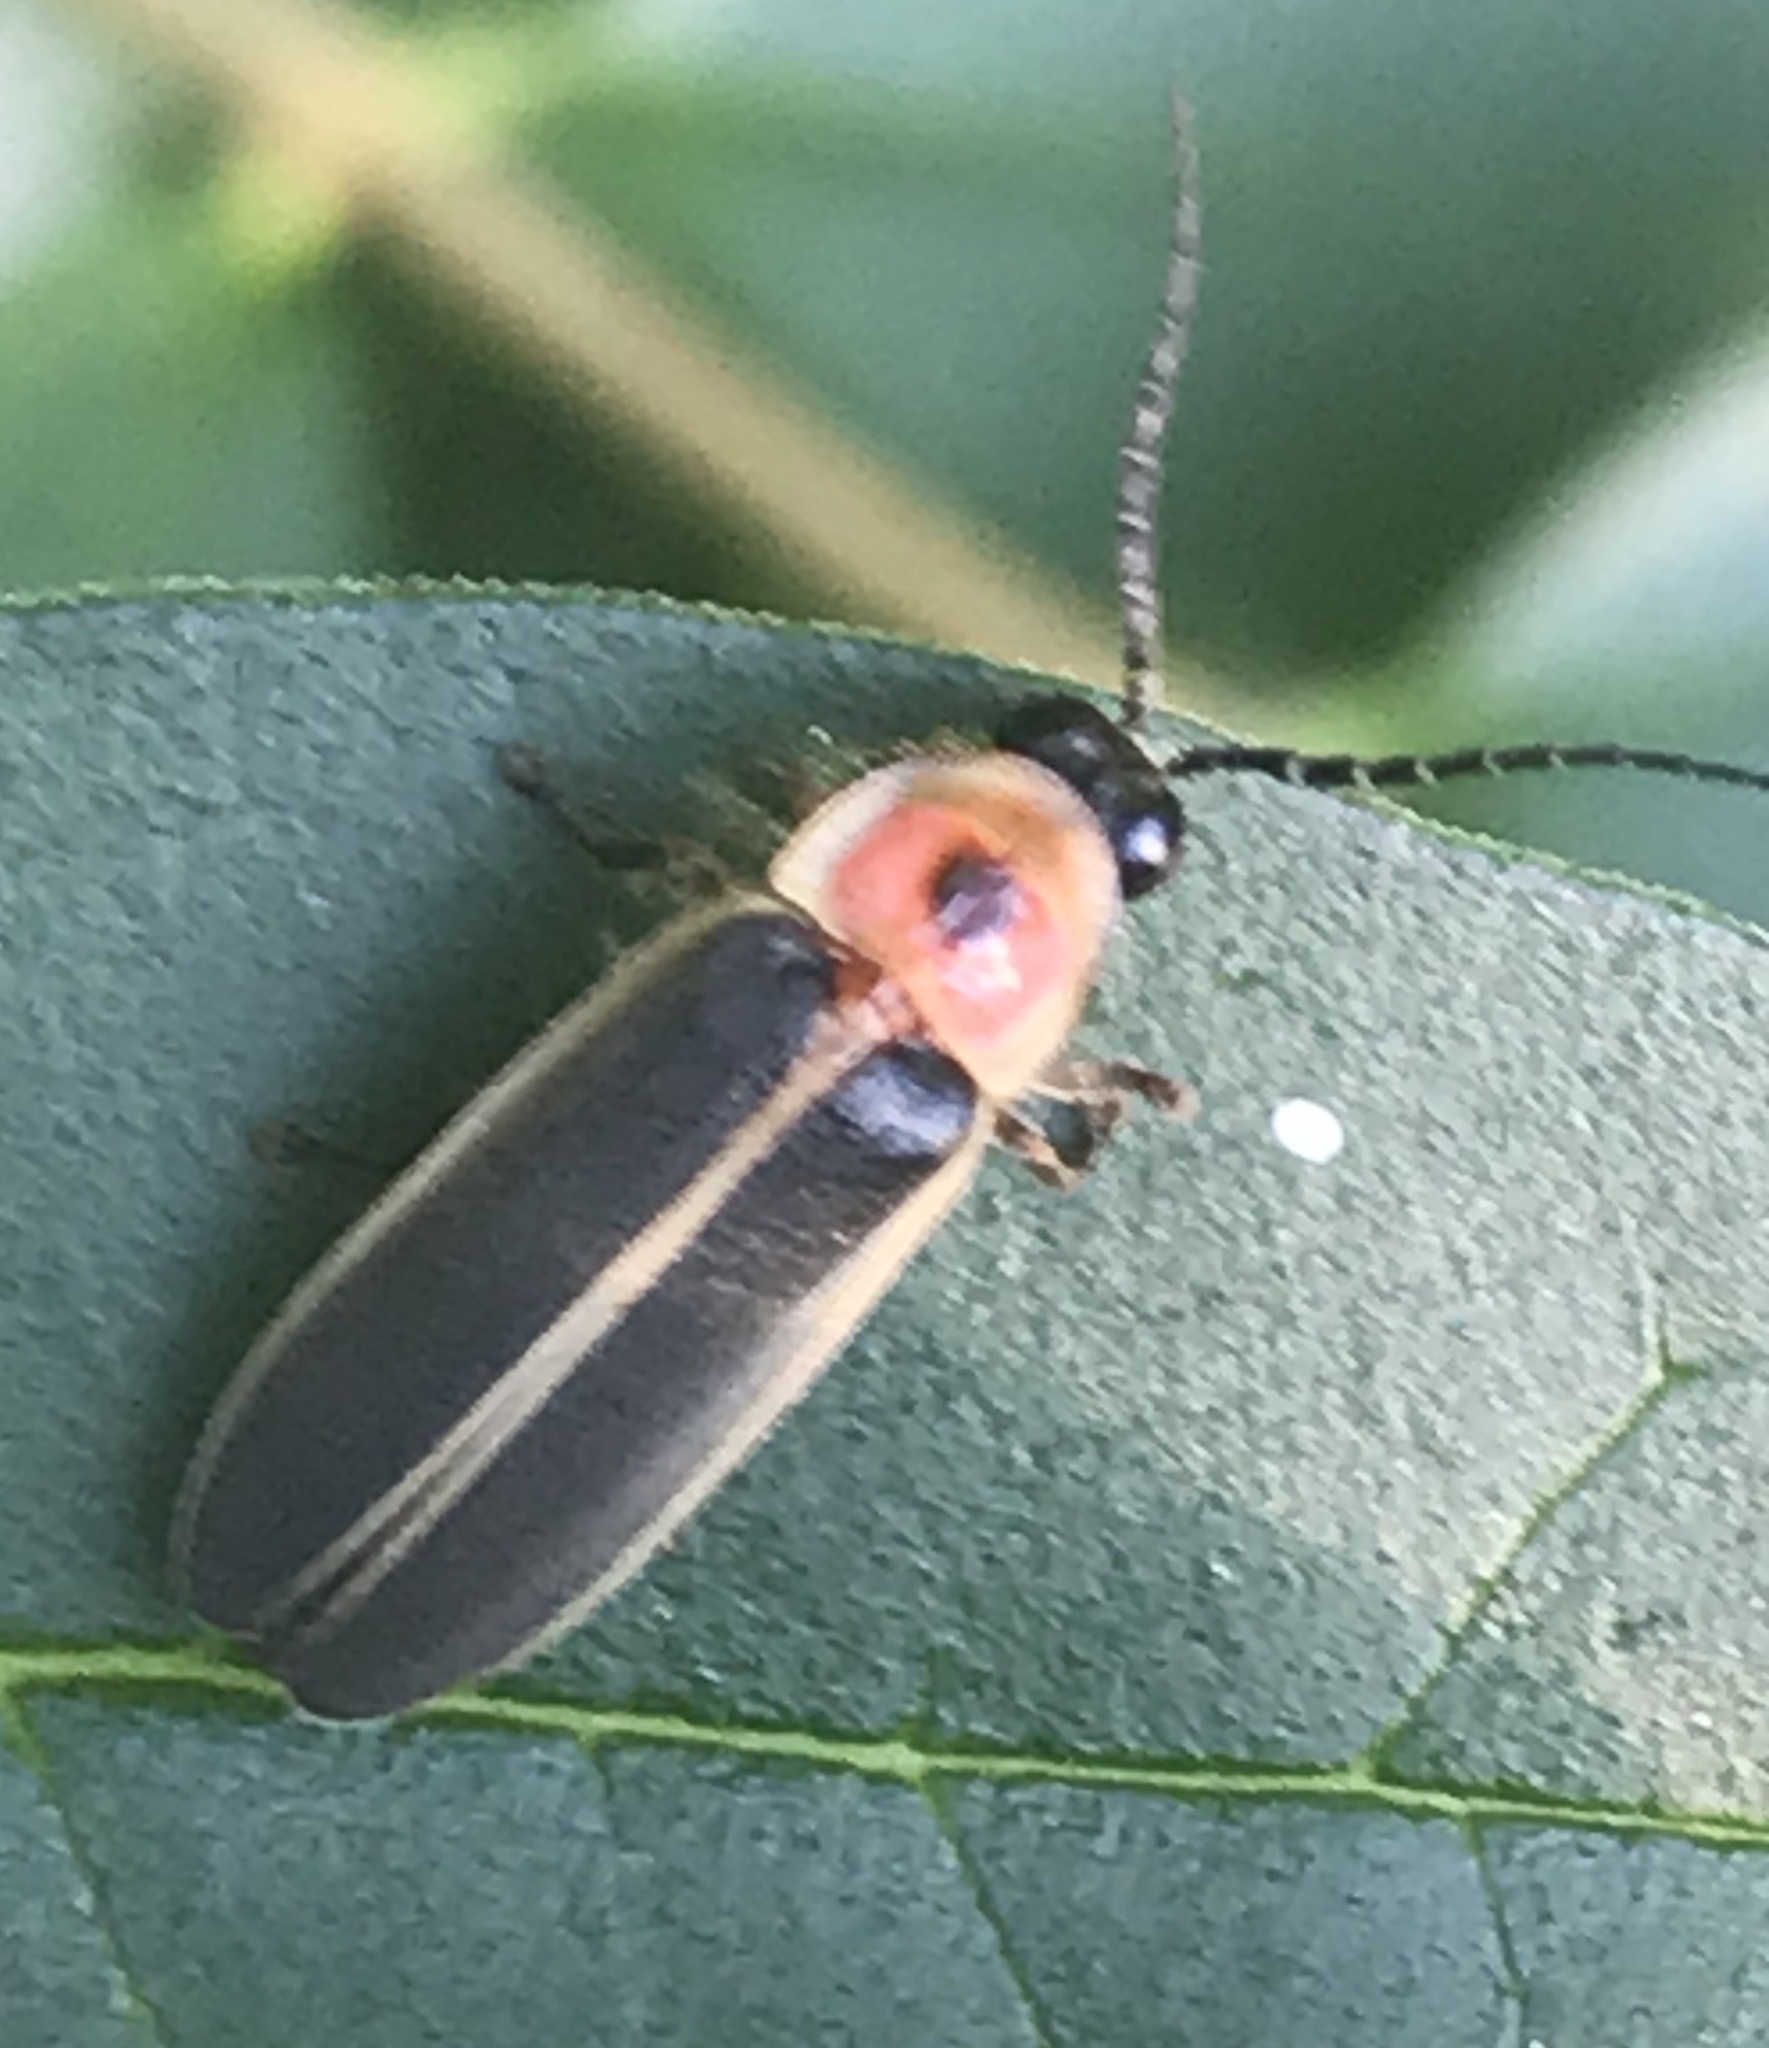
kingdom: Animalia
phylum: Arthropoda
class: Insecta
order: Coleoptera
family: Lampyridae
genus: Photinus
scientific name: Photinus
